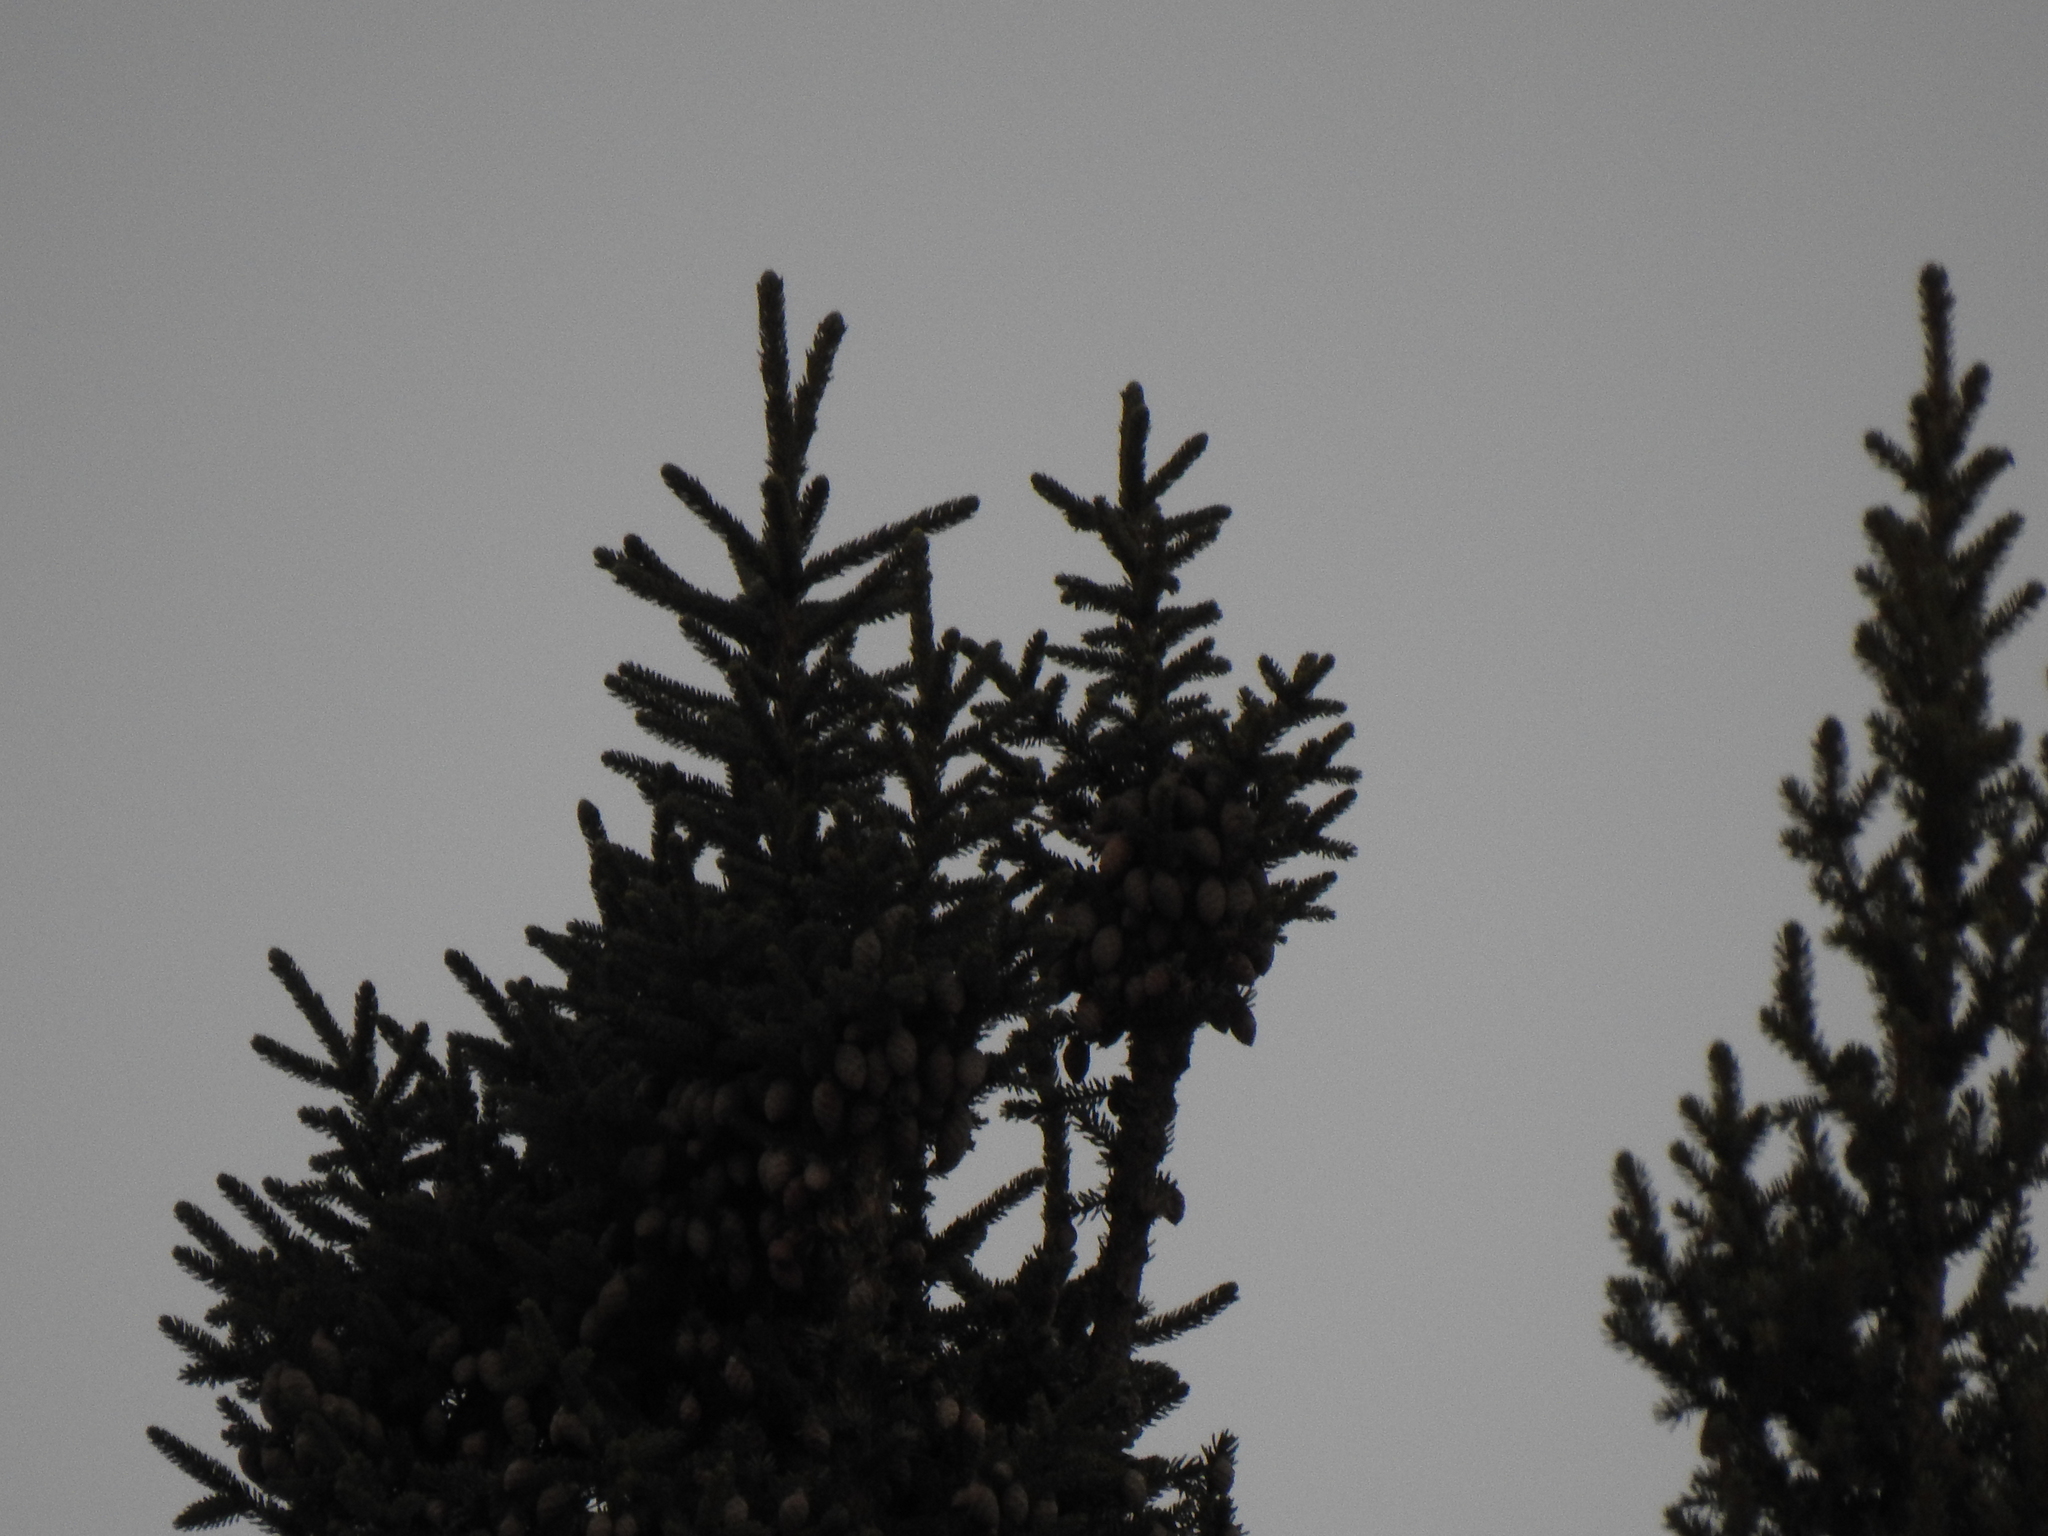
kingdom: Plantae
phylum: Tracheophyta
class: Pinopsida
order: Pinales
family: Pinaceae
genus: Picea
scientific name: Picea mariana
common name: Black spruce
